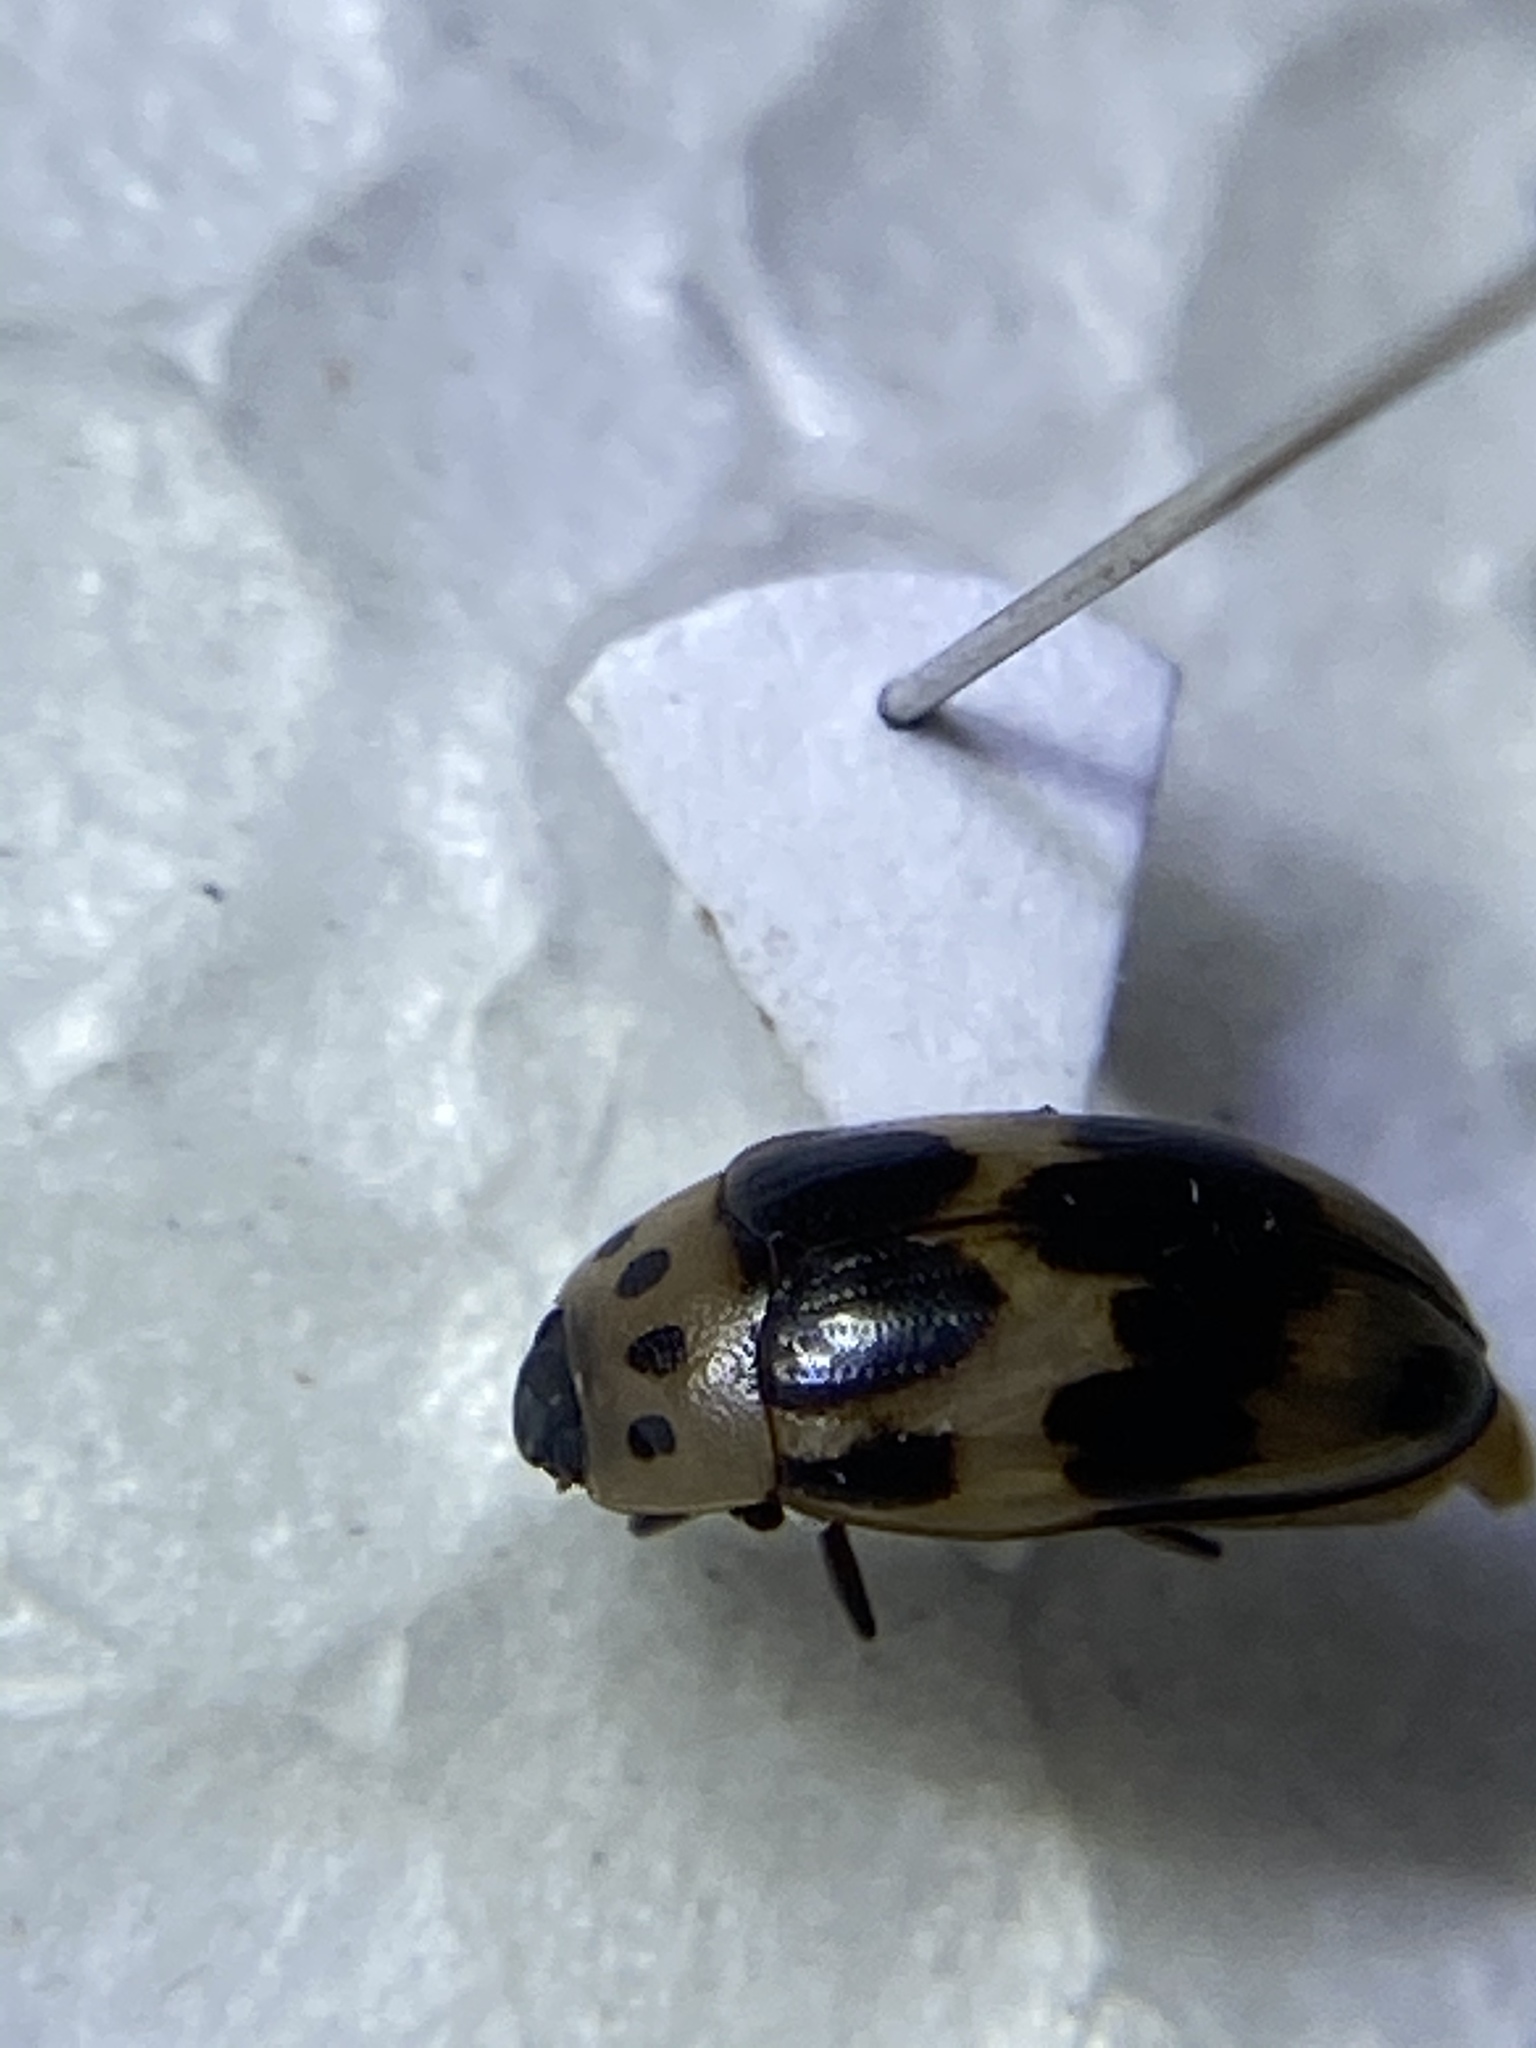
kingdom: Animalia
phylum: Arthropoda
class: Insecta
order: Coleoptera
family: Erotylidae
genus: Ischyrus
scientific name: Ischyrus quadripunctatus
